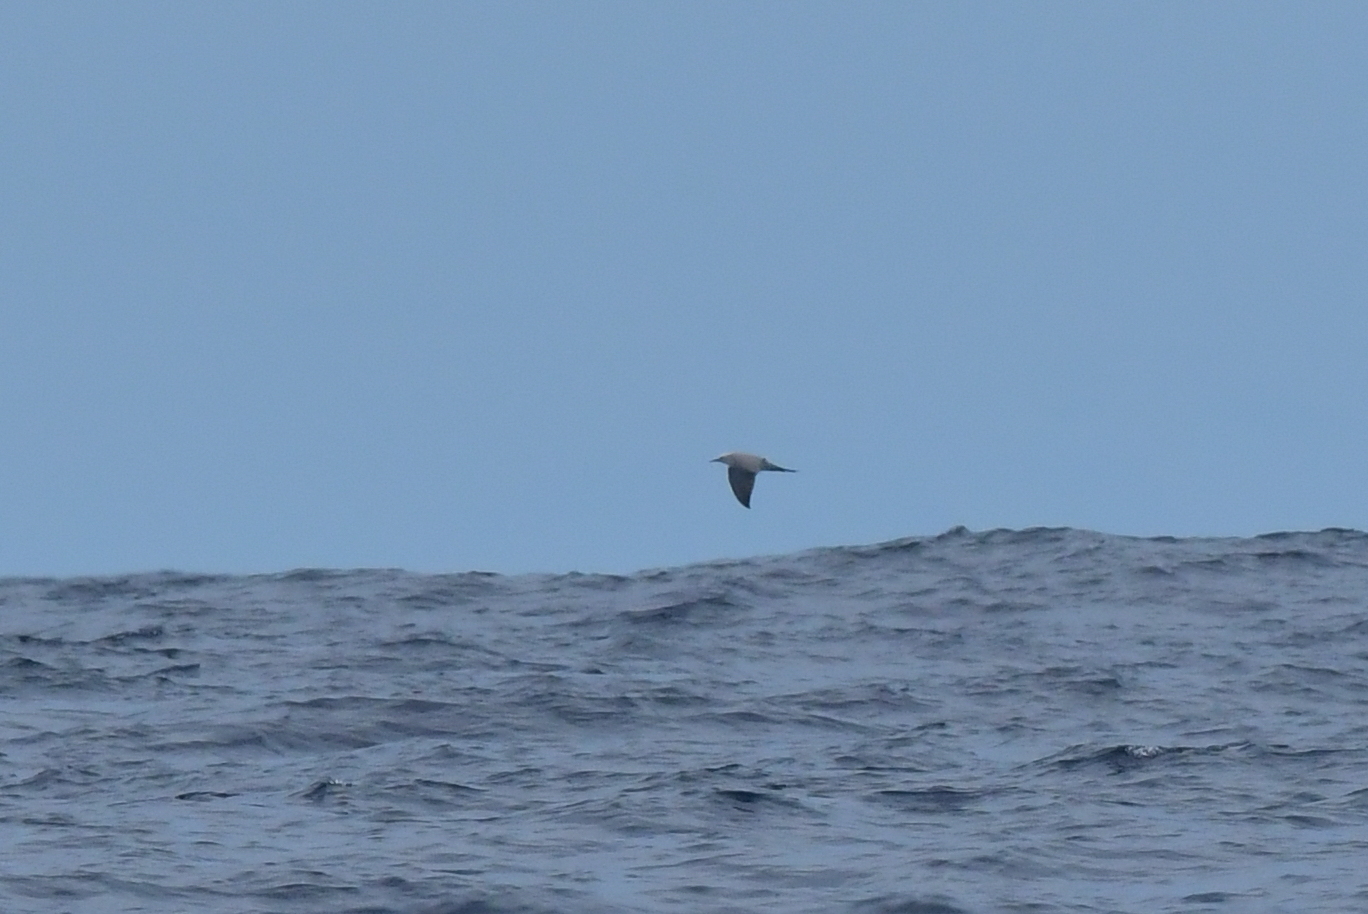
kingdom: Animalia
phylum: Chordata
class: Aves
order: Charadriiformes
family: Laridae
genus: Anous
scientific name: Anous albivitta
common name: Gray noddy
